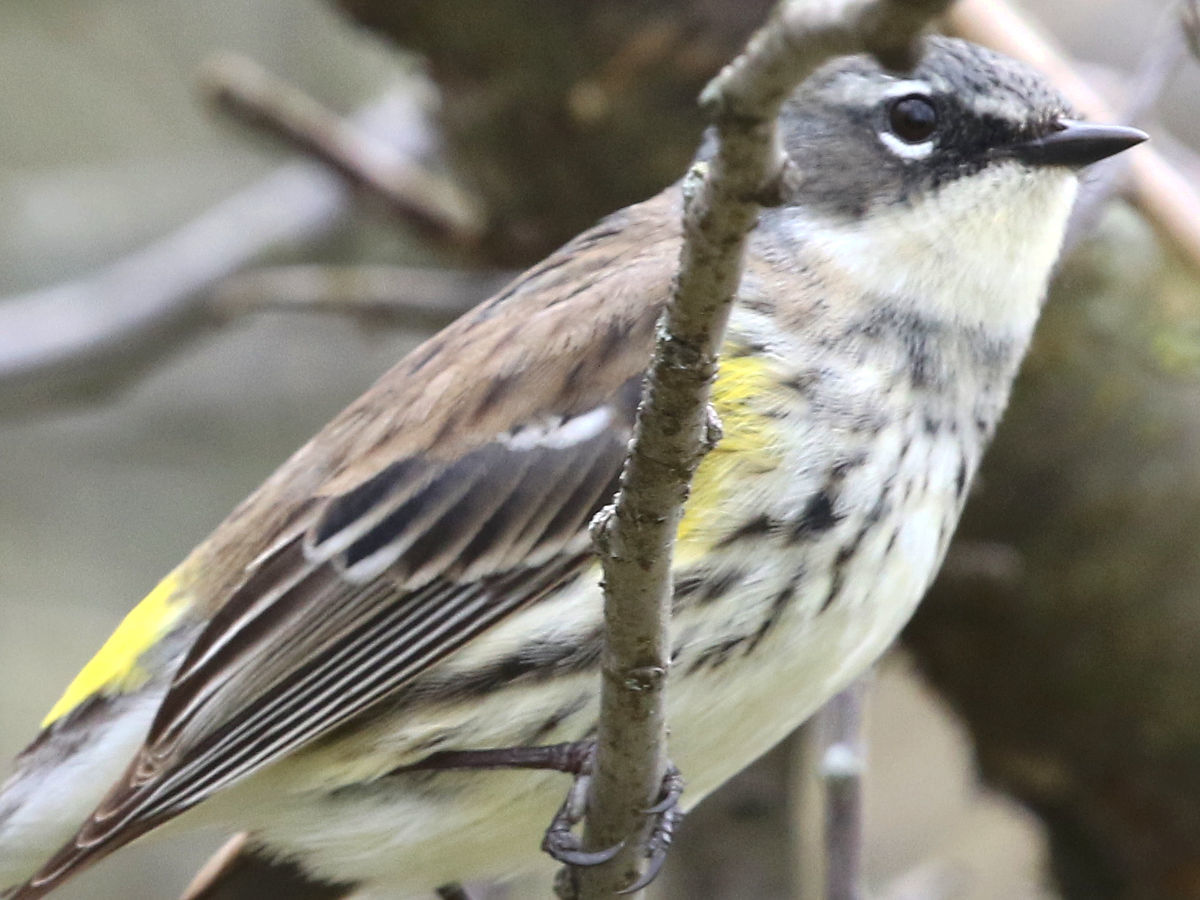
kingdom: Animalia
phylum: Chordata
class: Aves
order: Passeriformes
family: Parulidae
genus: Setophaga
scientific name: Setophaga coronata
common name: Myrtle warbler
